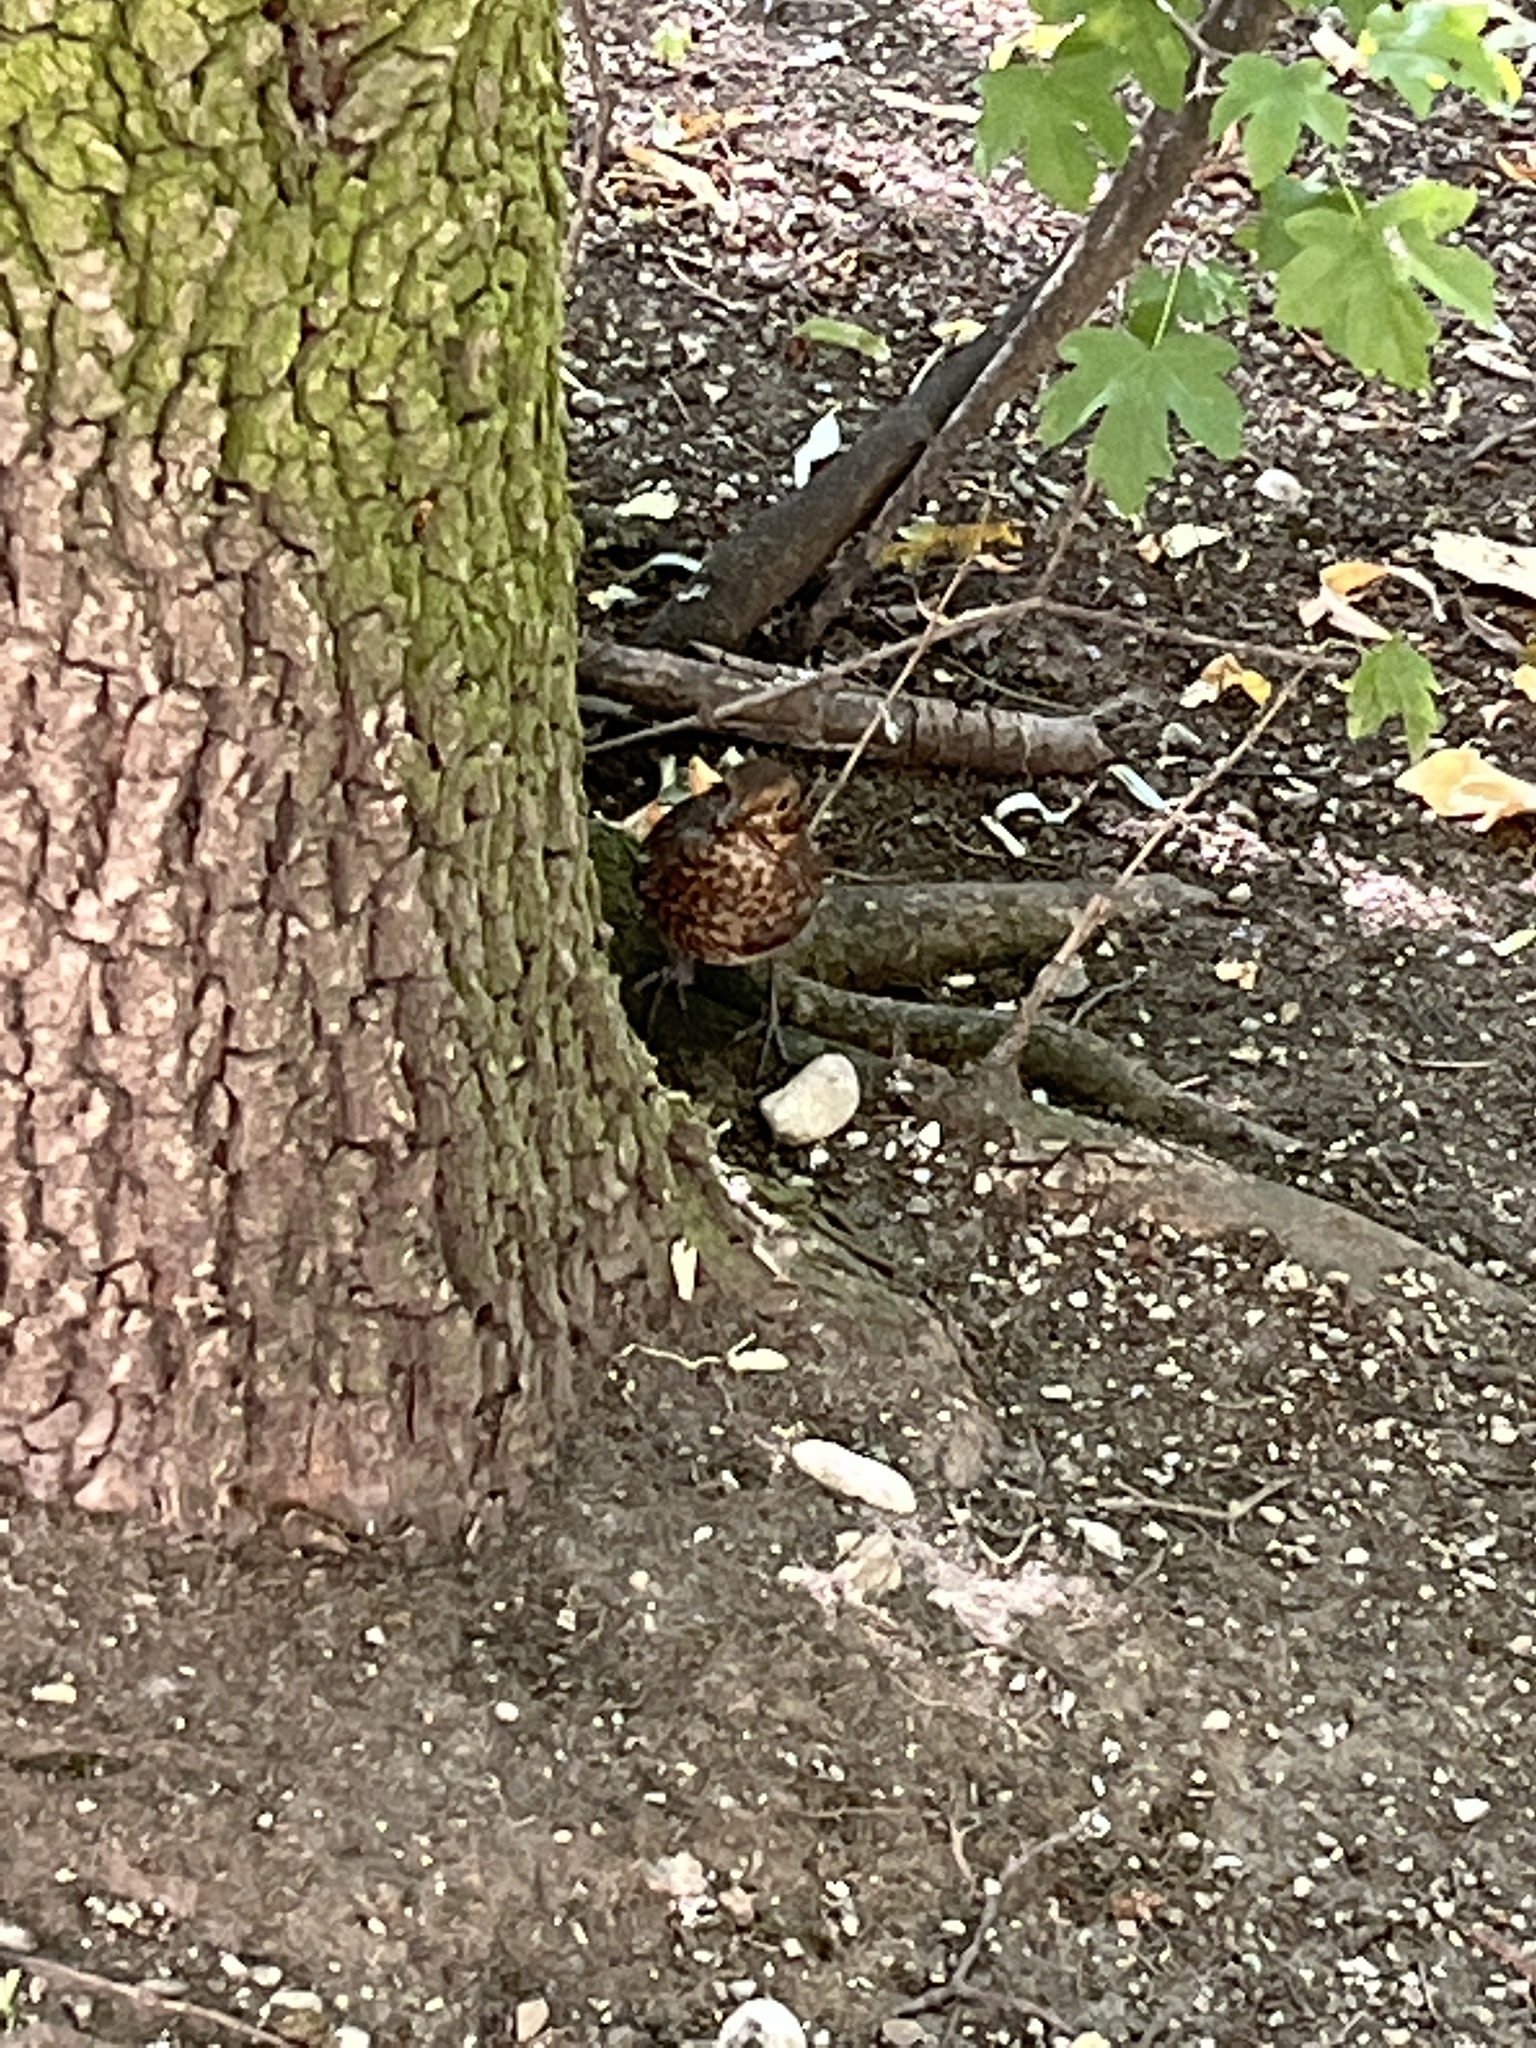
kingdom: Animalia
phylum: Chordata
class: Aves
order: Passeriformes
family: Turdidae
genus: Turdus
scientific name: Turdus merula
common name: Common blackbird
